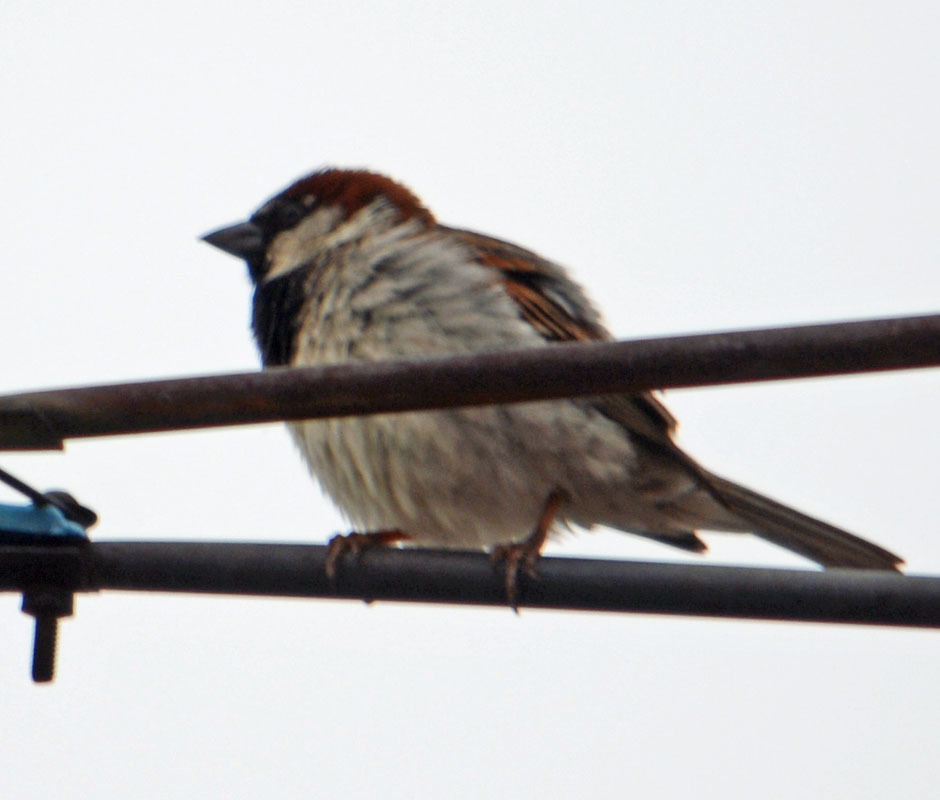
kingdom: Animalia
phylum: Chordata
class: Aves
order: Passeriformes
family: Passeridae
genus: Passer
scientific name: Passer domesticus
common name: House sparrow
